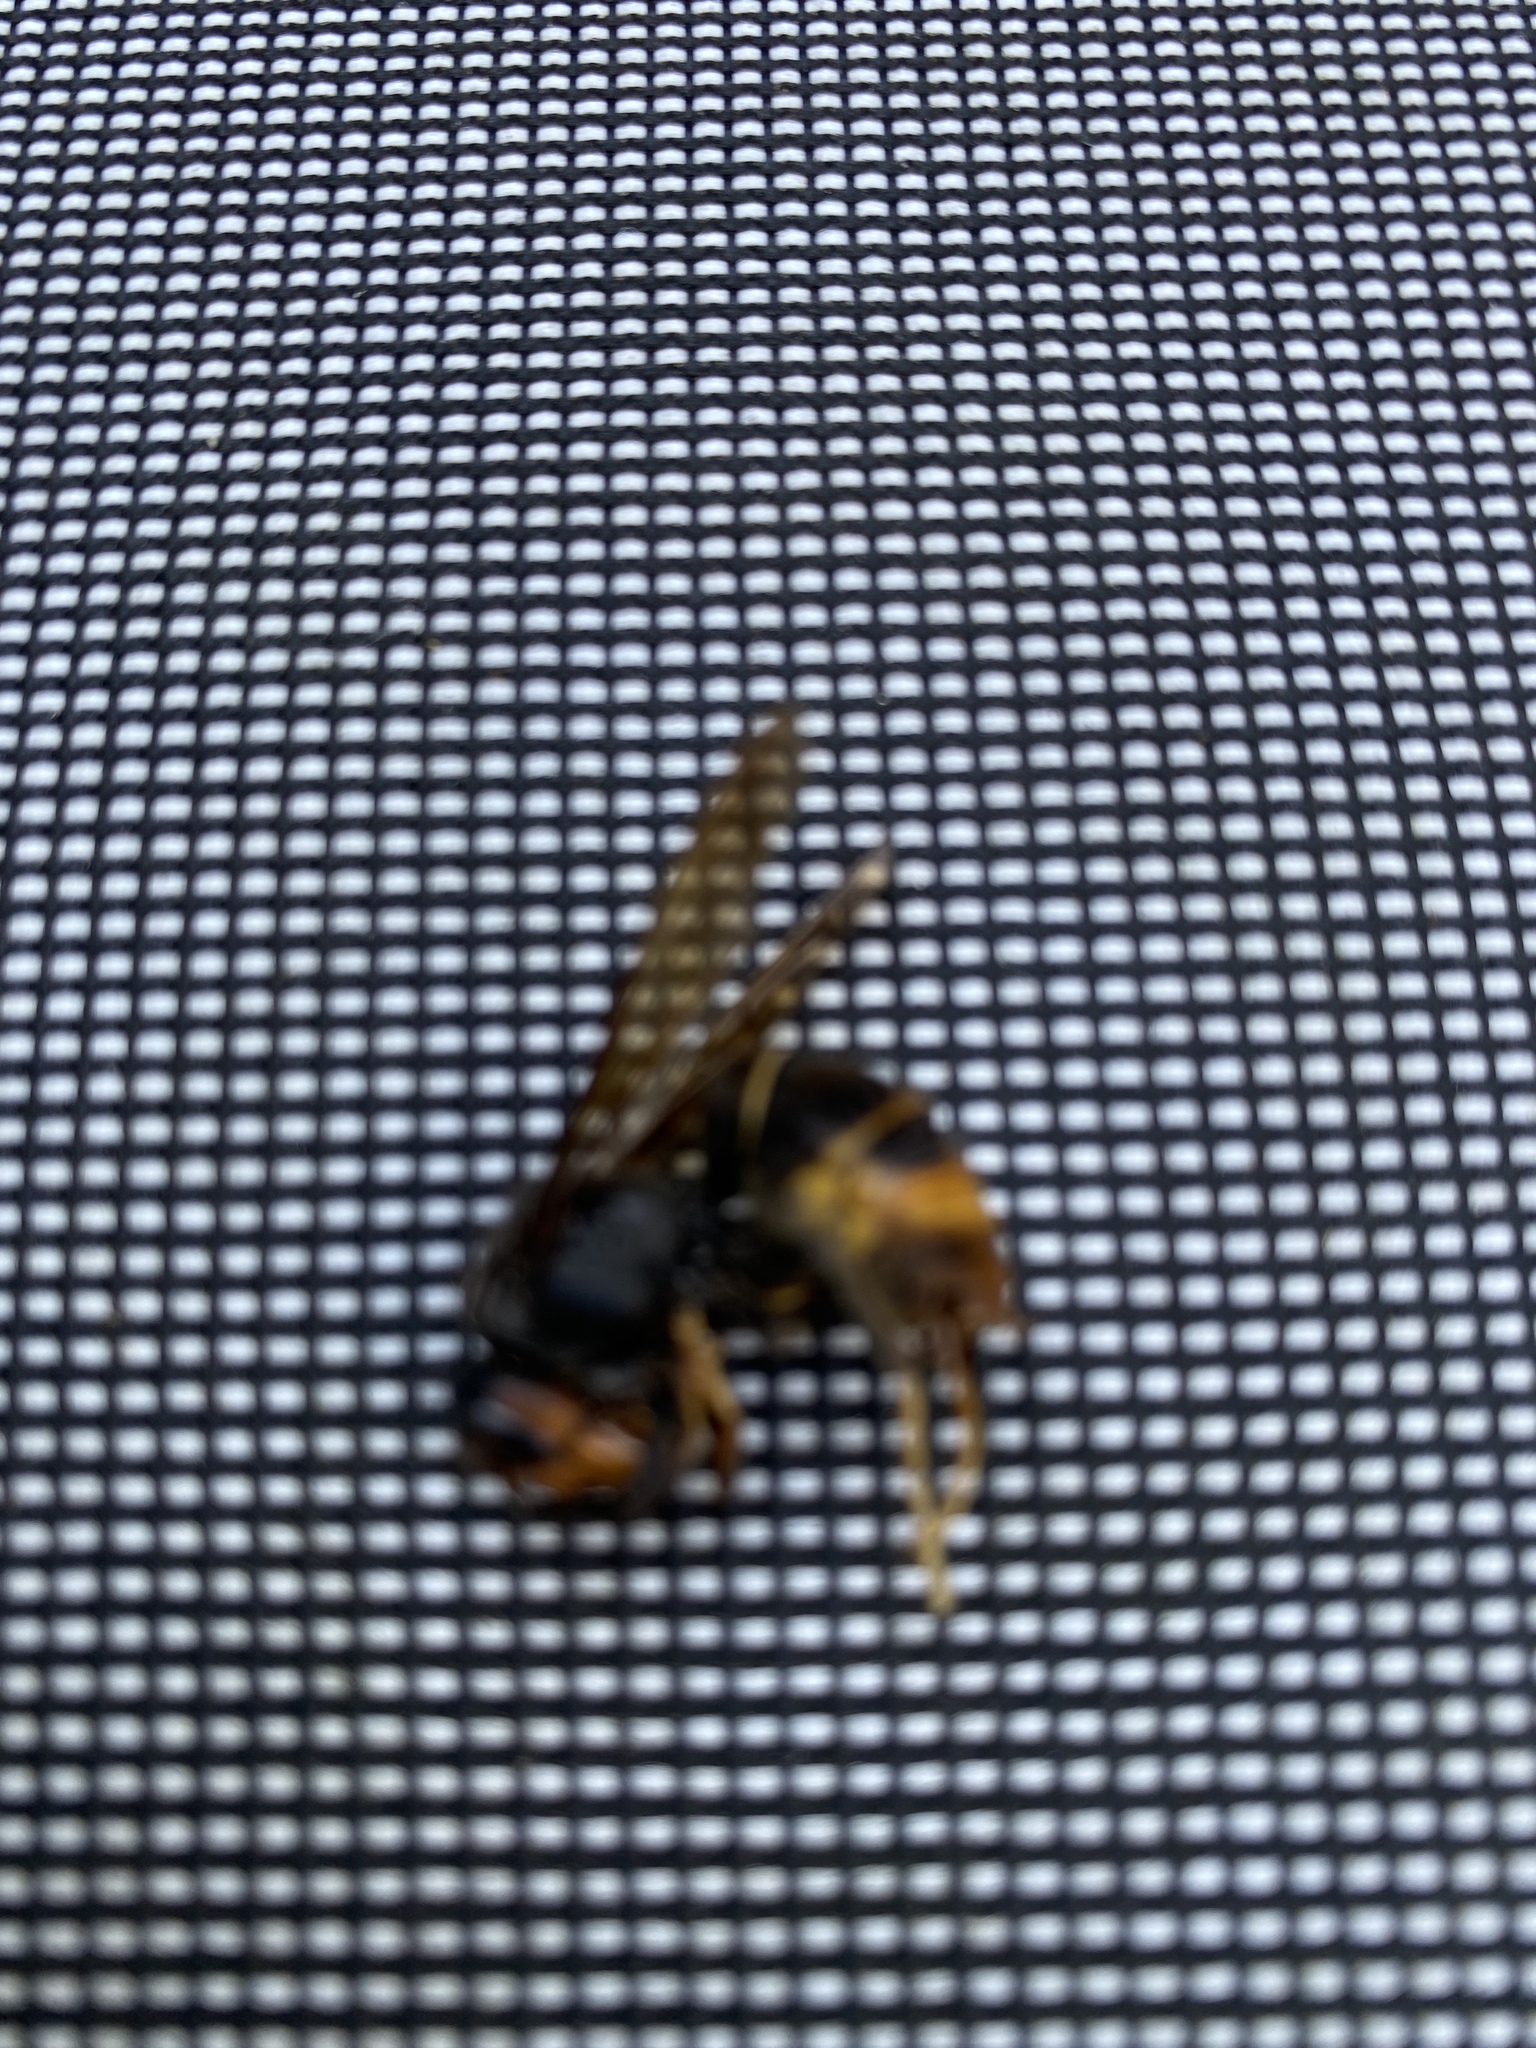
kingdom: Animalia
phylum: Arthropoda
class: Insecta
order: Hymenoptera
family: Vespidae
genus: Vespa
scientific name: Vespa velutina
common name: Asian hornet
